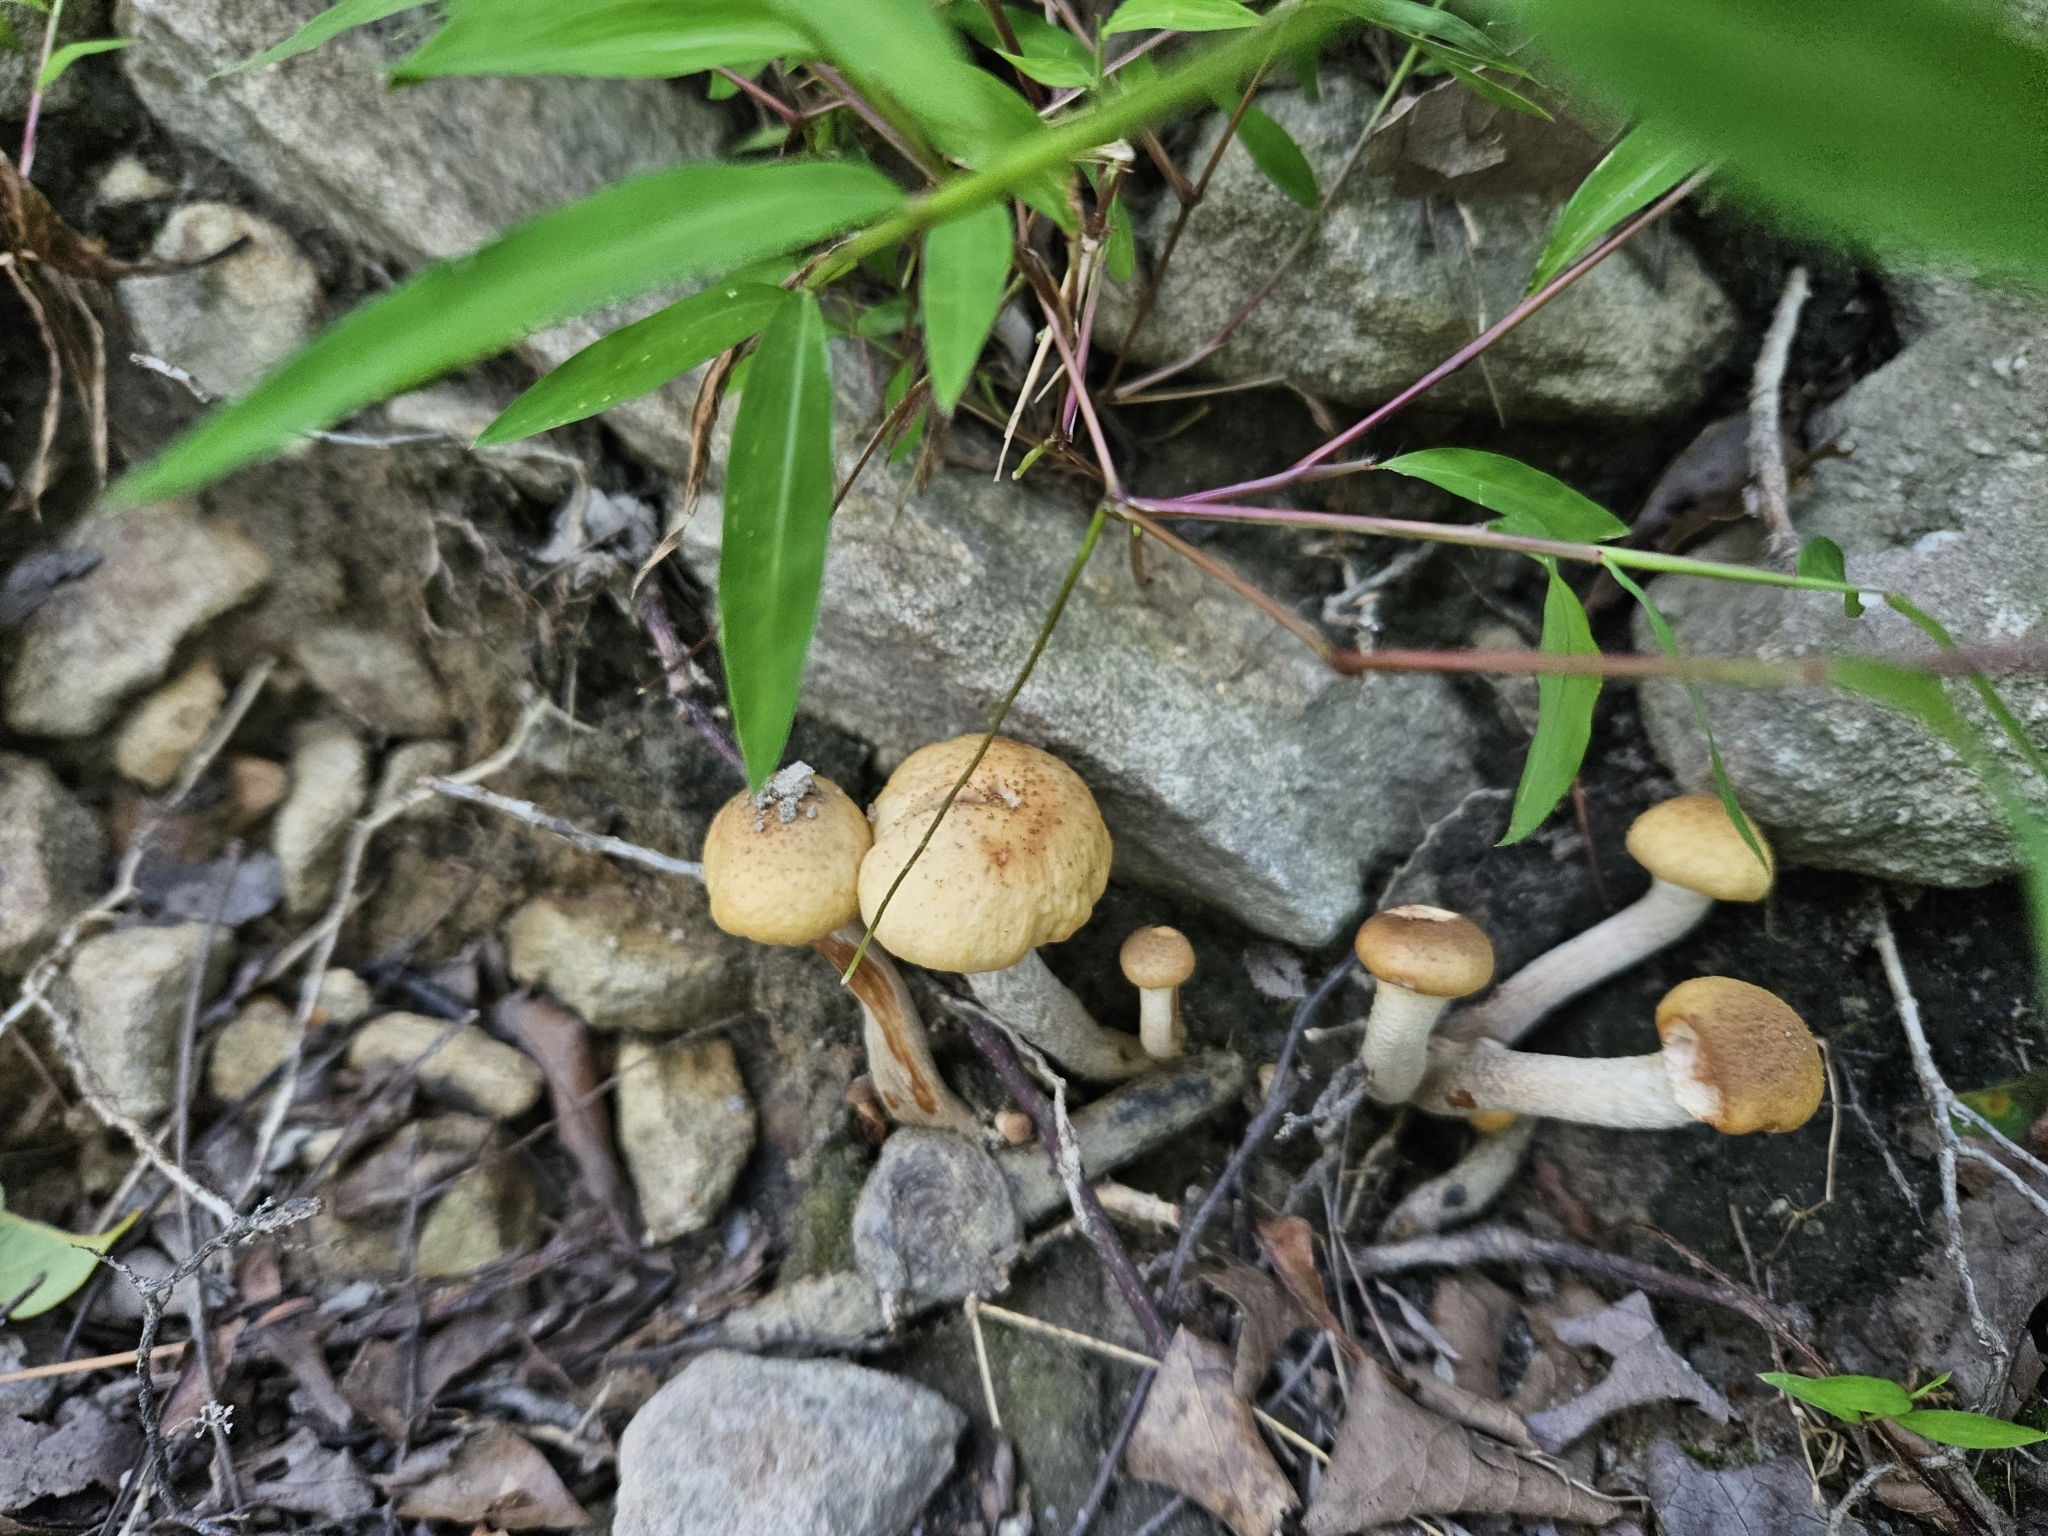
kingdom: Fungi
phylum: Basidiomycota
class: Agaricomycetes
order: Agaricales
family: Physalacriaceae
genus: Armillaria
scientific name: Armillaria mellea
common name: Honey fungus
